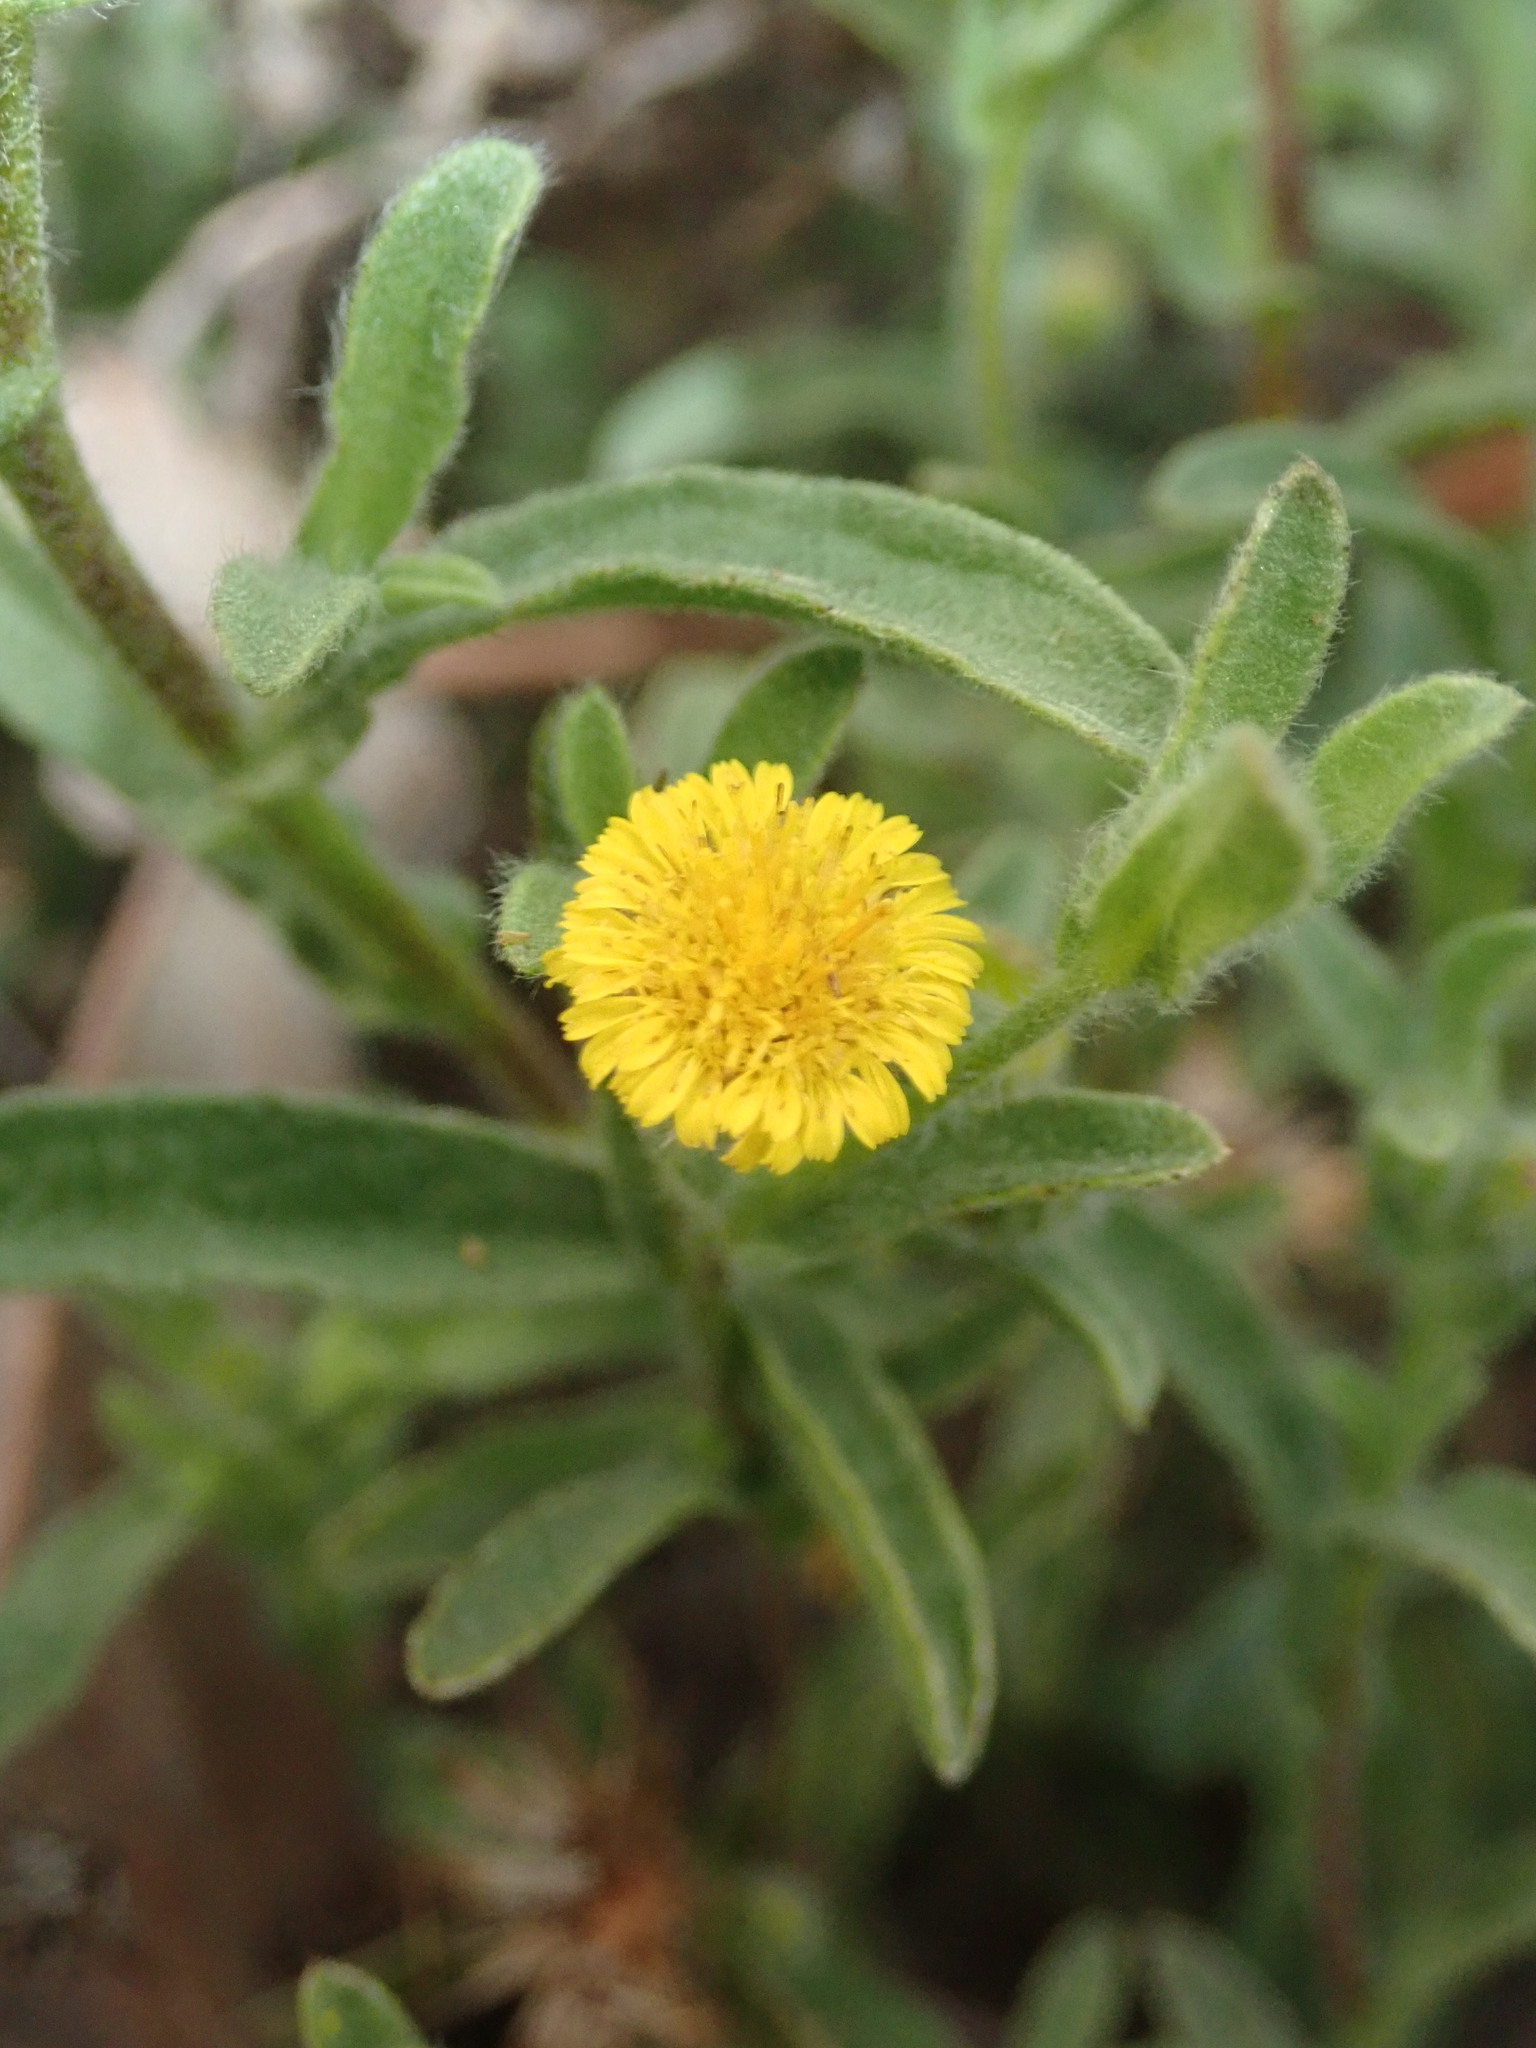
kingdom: Plantae
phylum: Tracheophyta
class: Magnoliopsida
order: Asterales
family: Asteraceae
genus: Pulicaria
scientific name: Pulicaria paludosa
